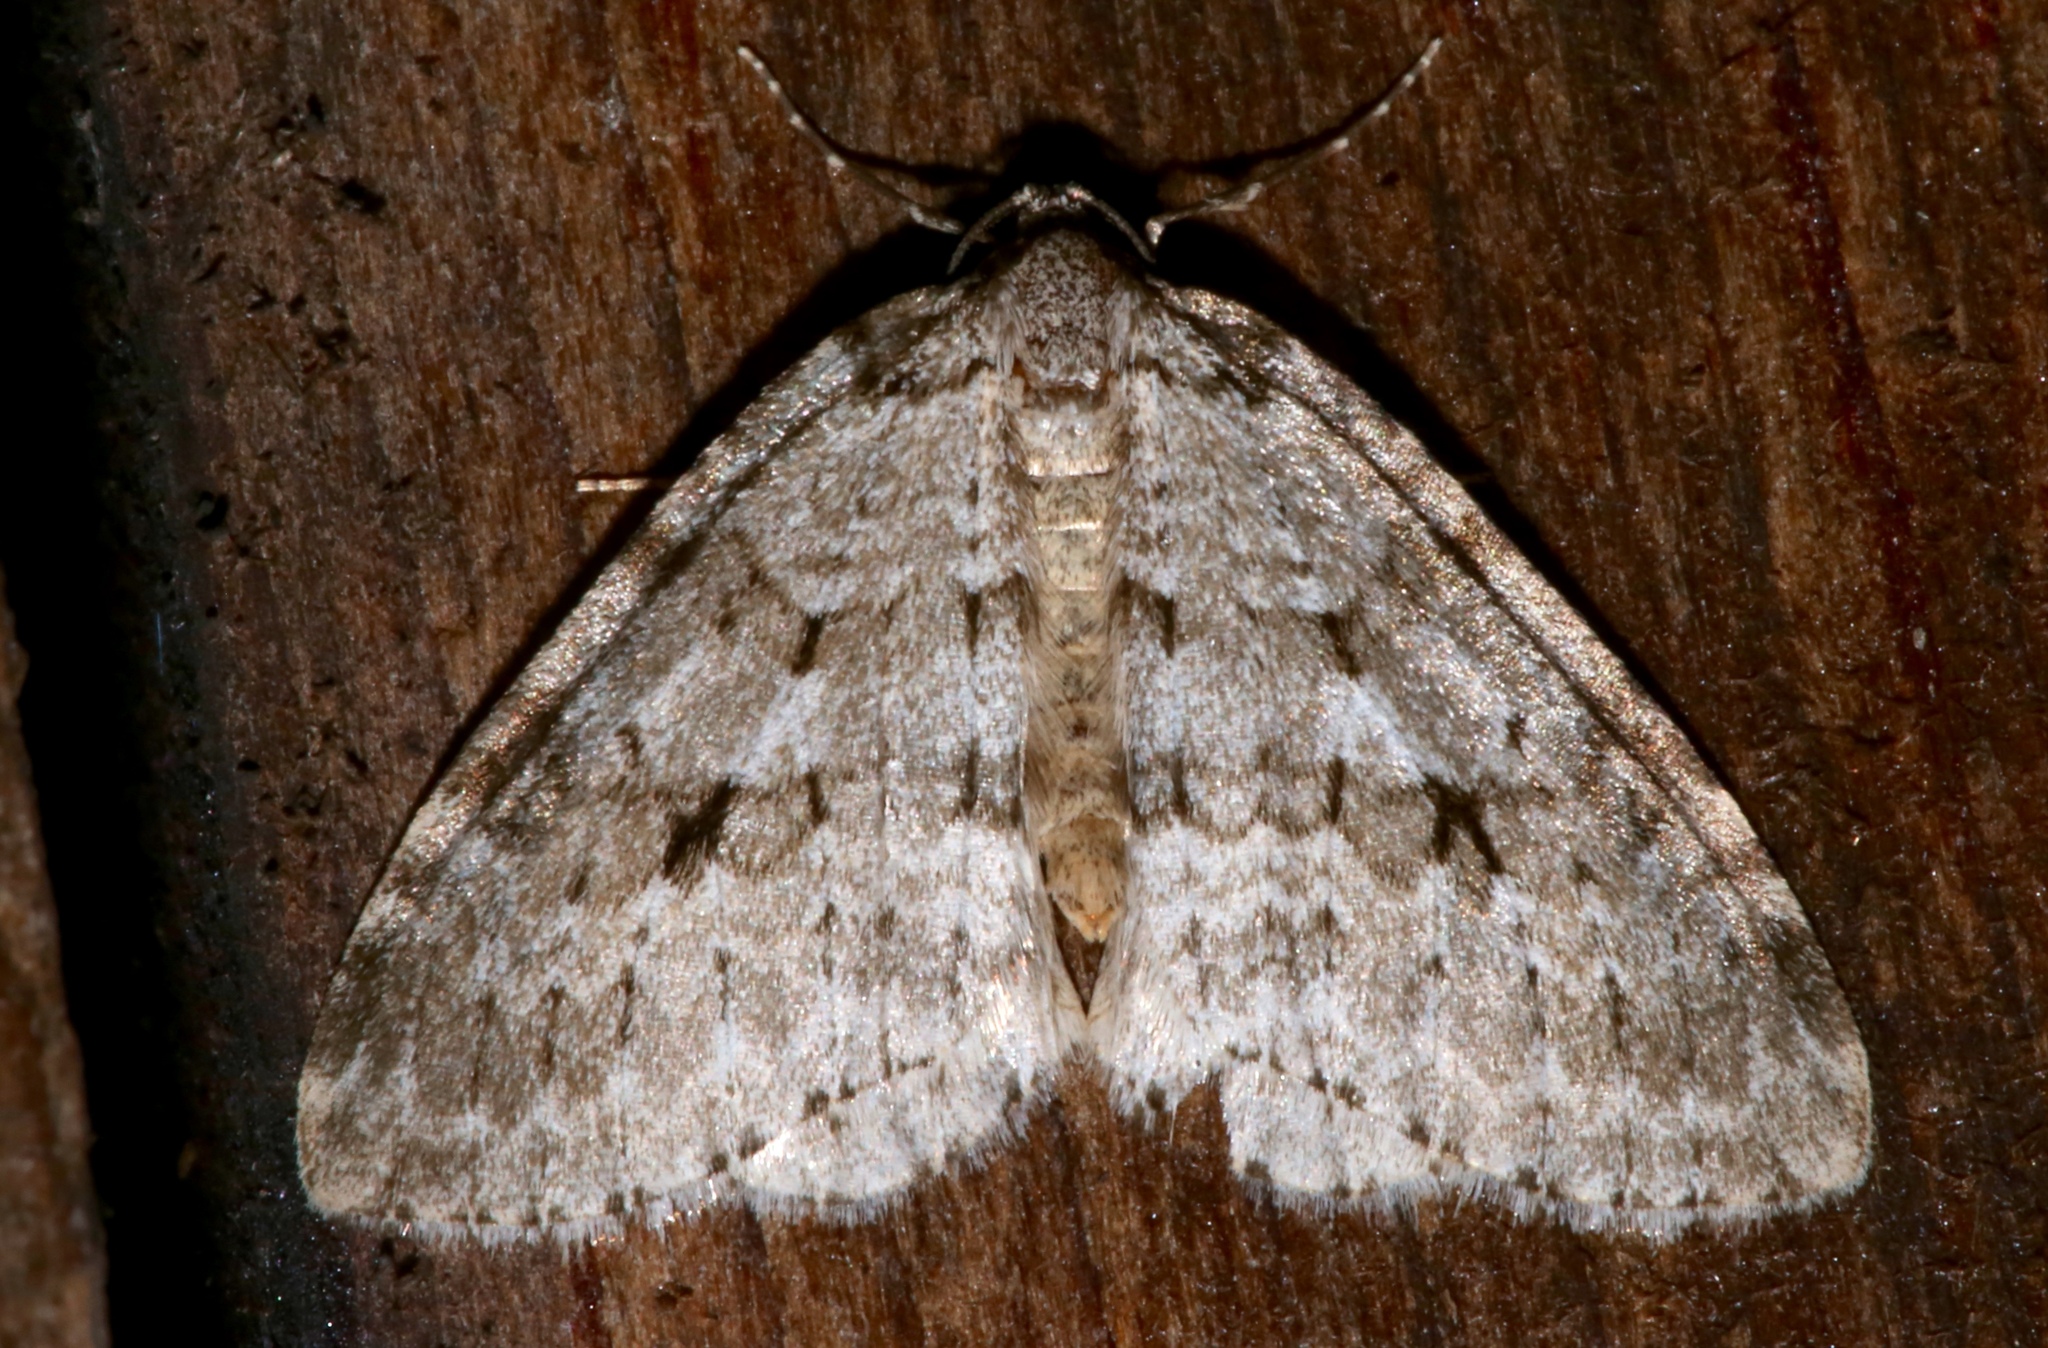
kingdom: Animalia
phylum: Arthropoda
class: Insecta
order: Lepidoptera
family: Geometridae
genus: Epirrita
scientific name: Epirrita autumnata
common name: Autumnal moth
